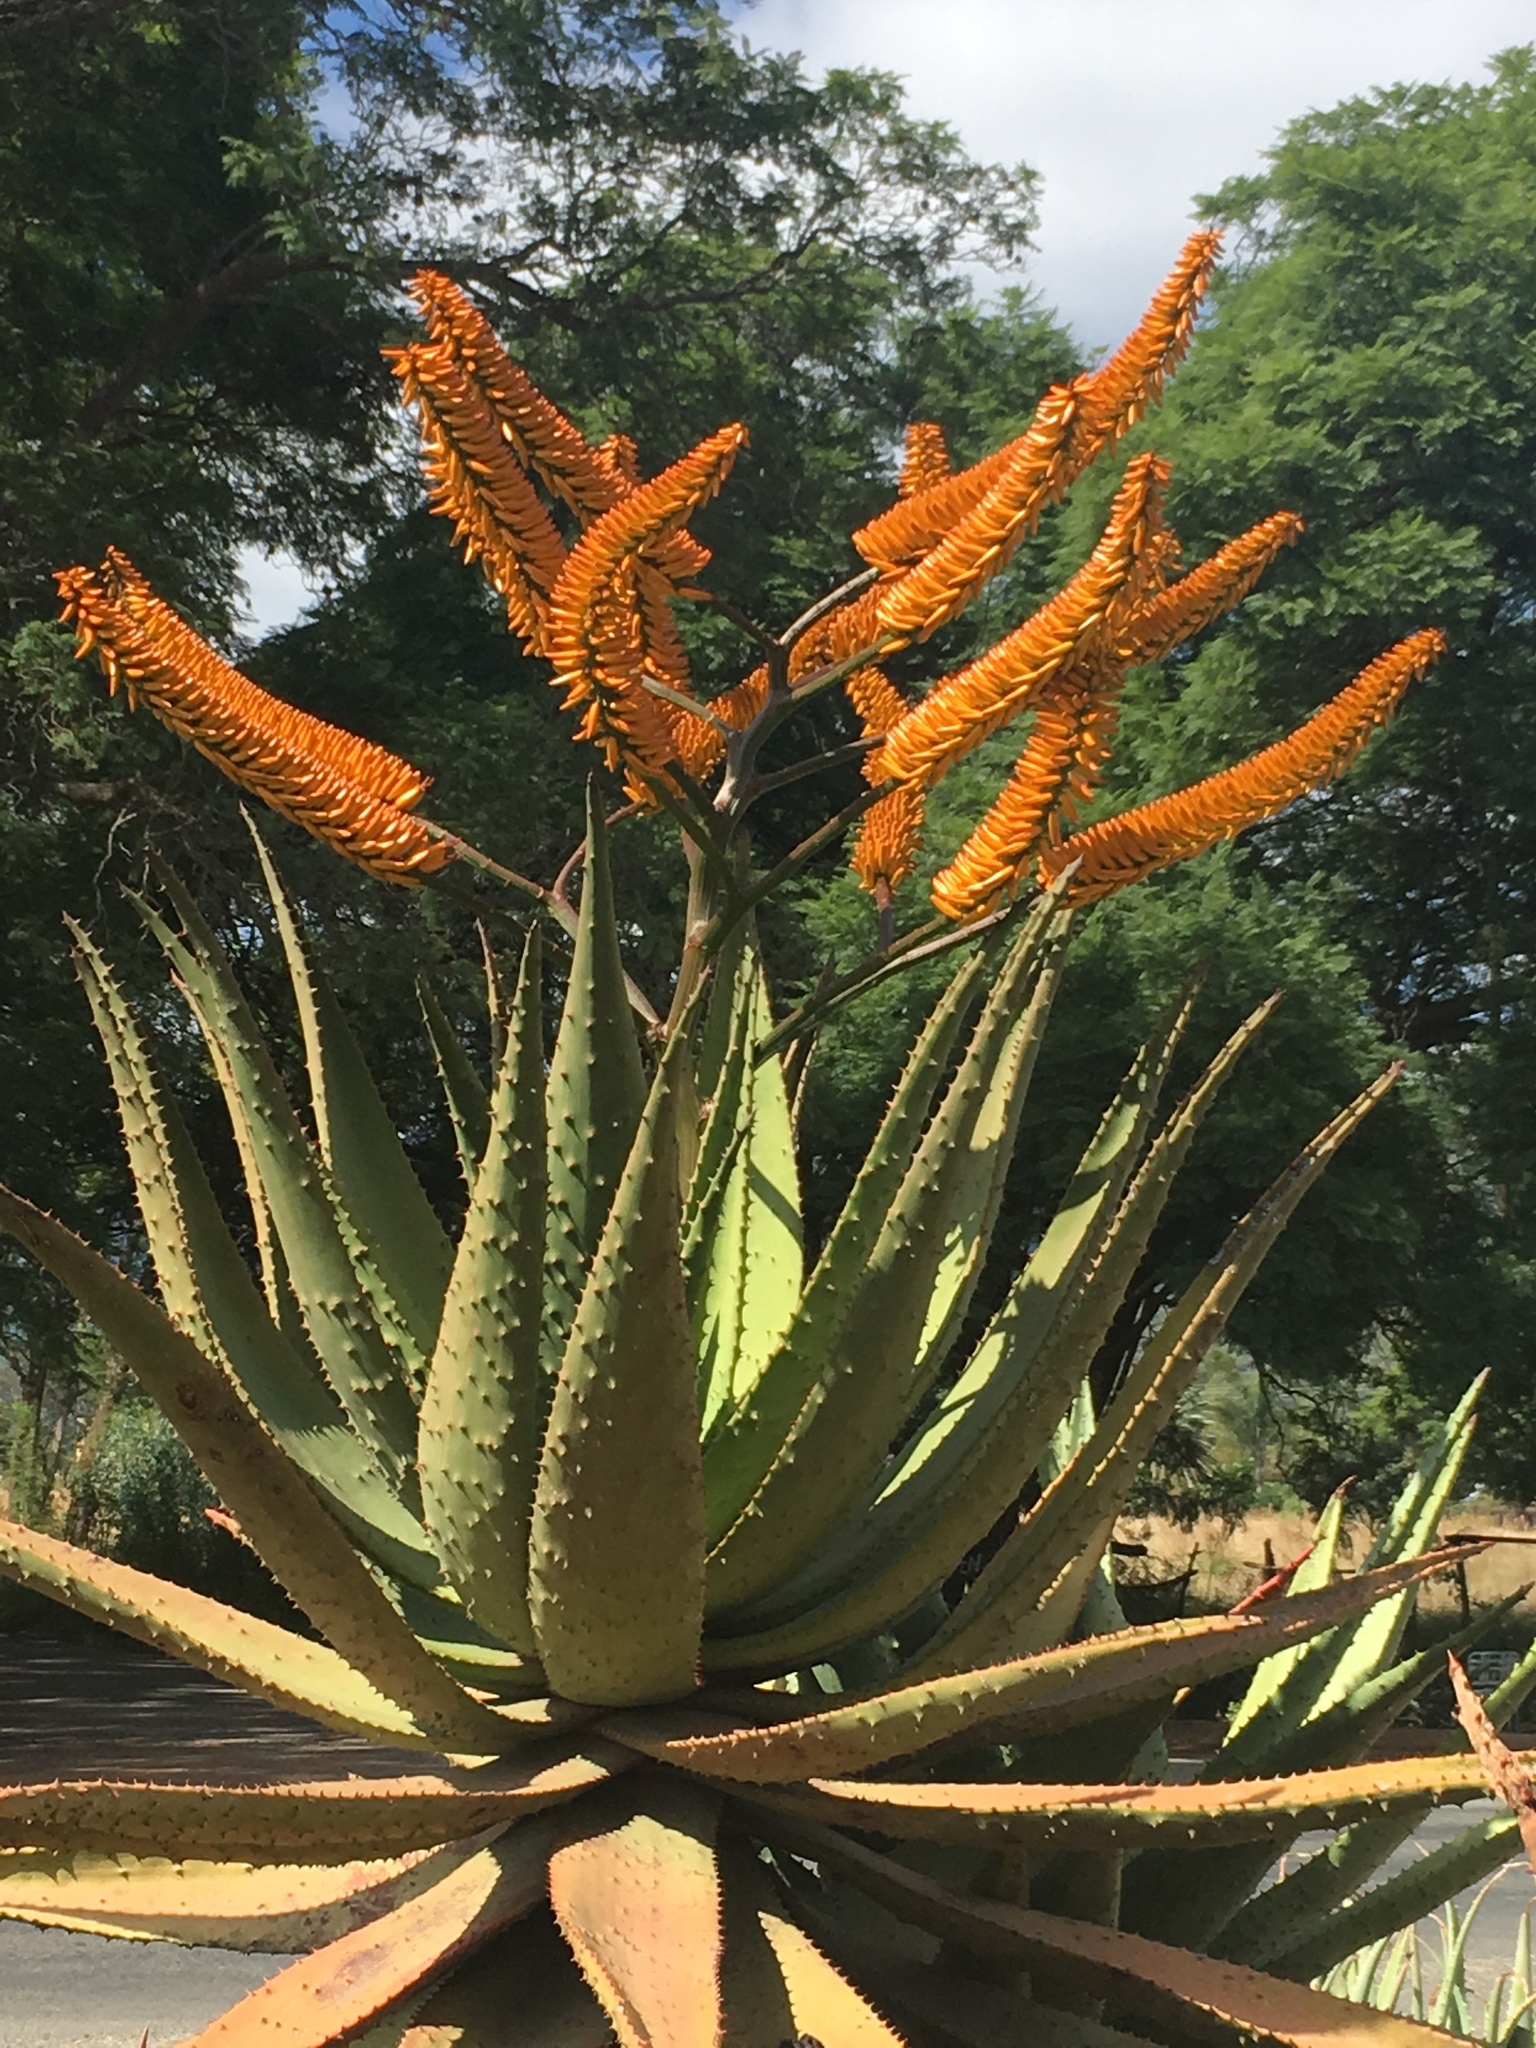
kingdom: Plantae
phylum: Tracheophyta
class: Liliopsida
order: Asparagales
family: Asphodelaceae
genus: Aloe
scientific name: Aloe marlothii
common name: Flat-flowered aloe
